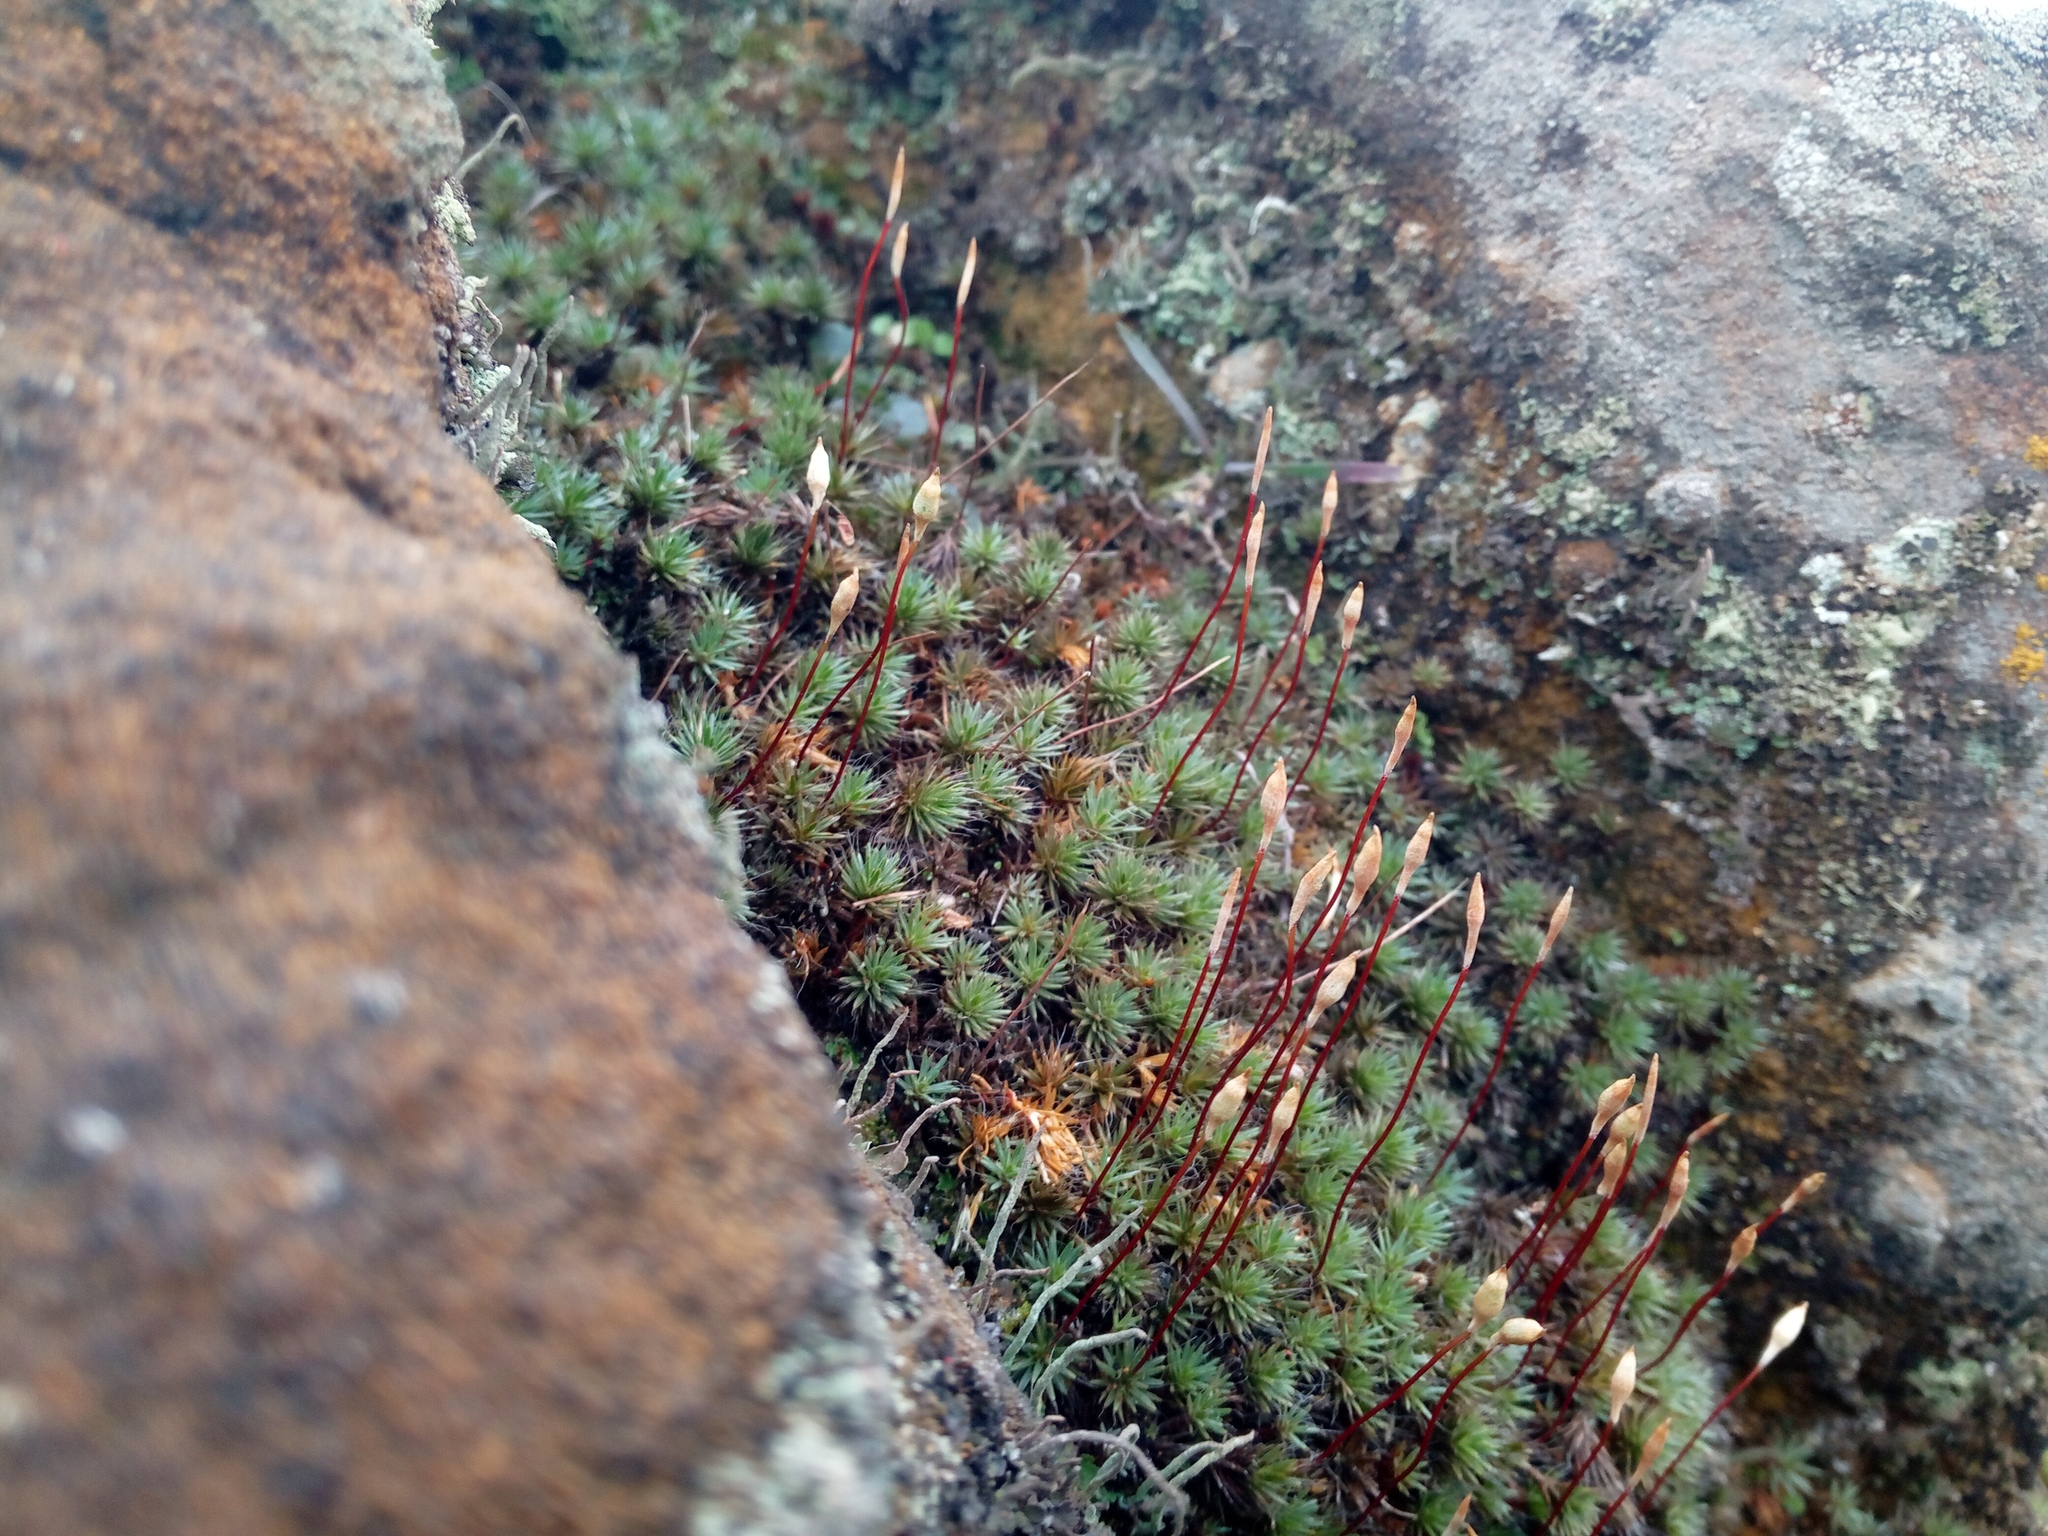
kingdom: Plantae
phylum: Bryophyta
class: Polytrichopsida
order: Polytrichales
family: Polytrichaceae
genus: Polytrichum
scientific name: Polytrichum piliferum
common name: Bristly haircap
